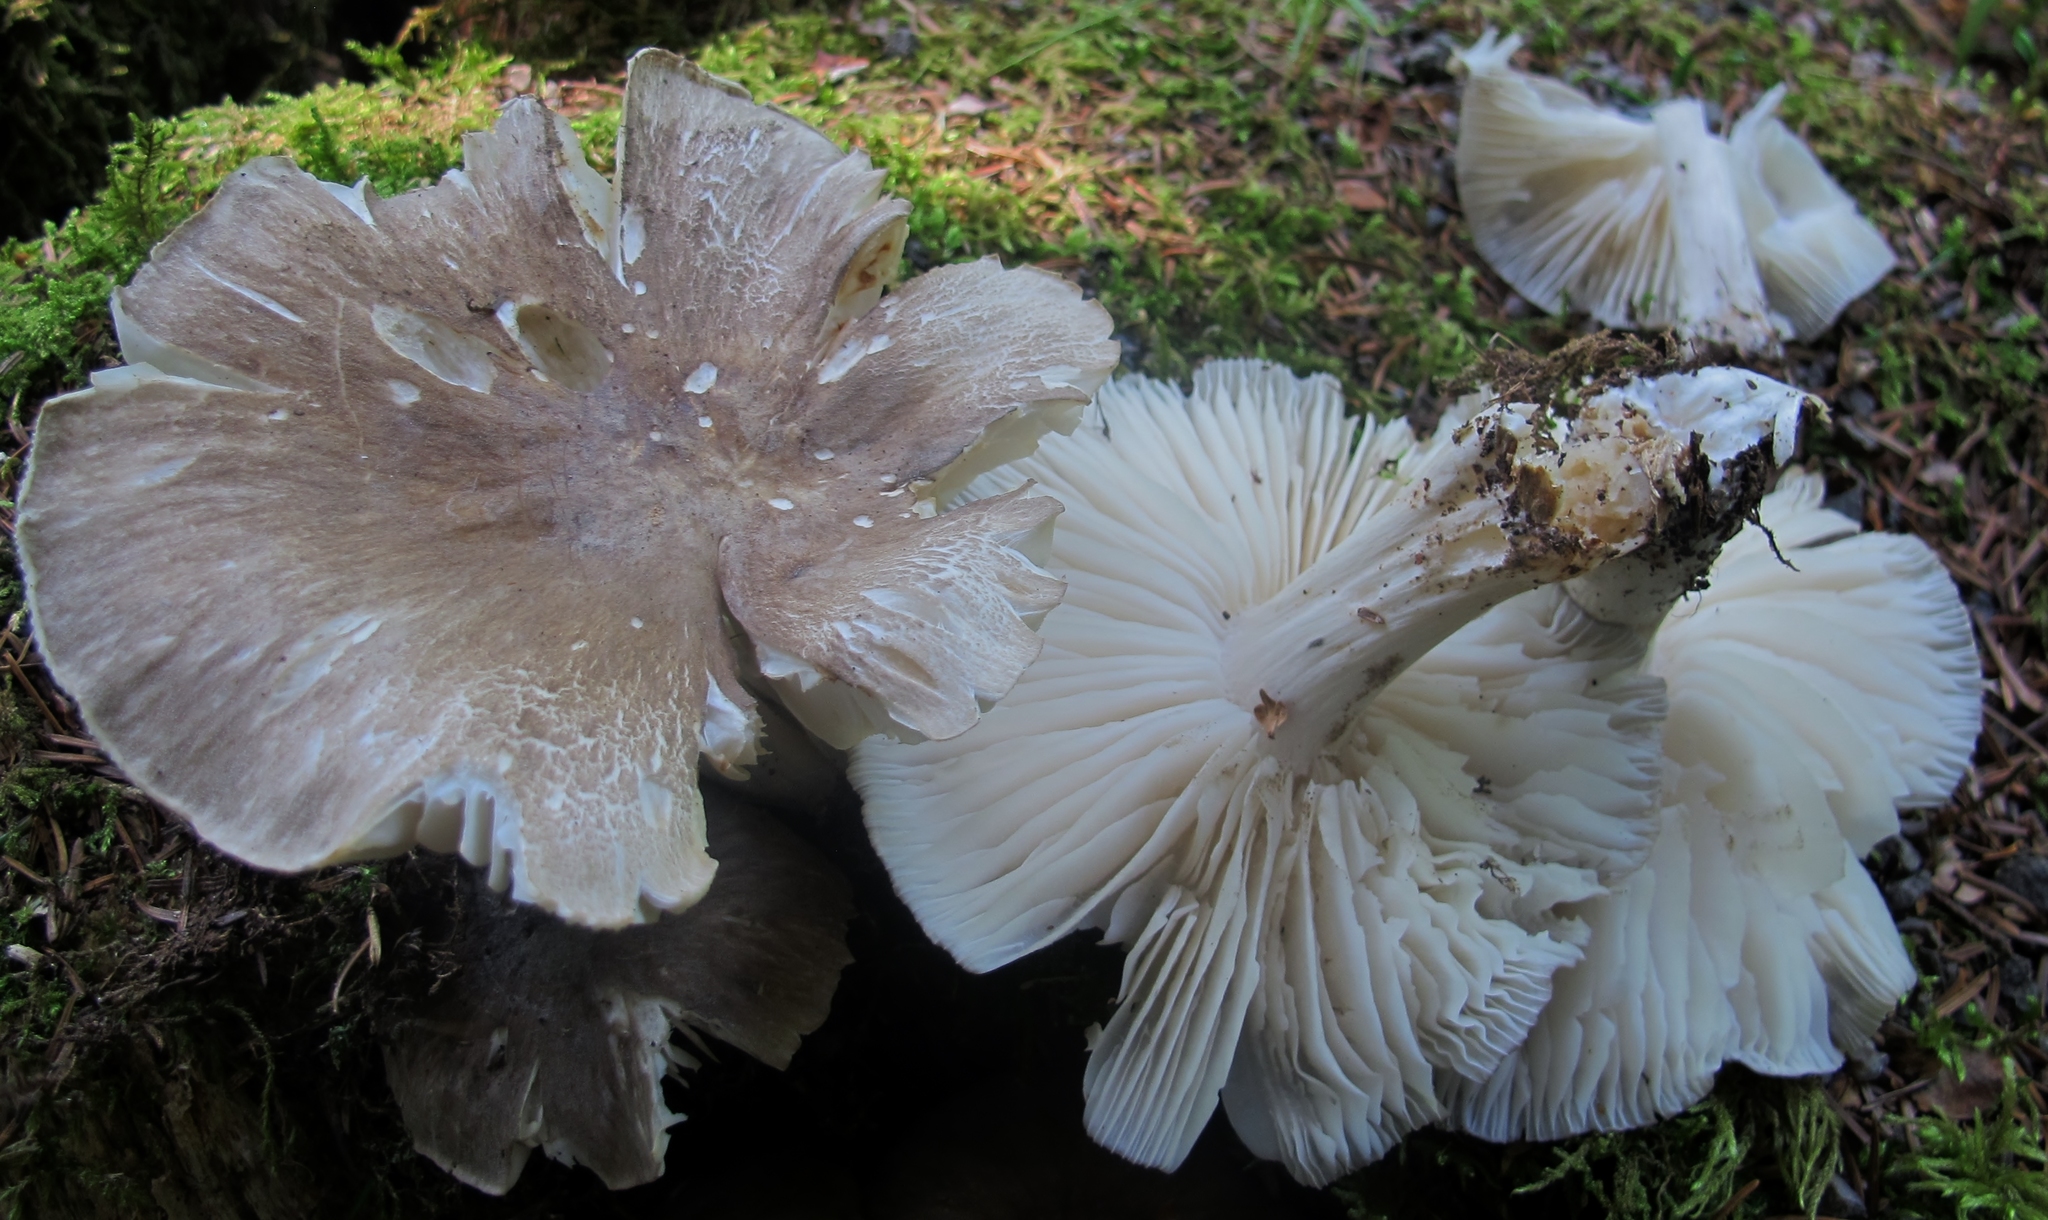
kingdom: Fungi
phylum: Basidiomycota
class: Agaricomycetes
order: Agaricales
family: Tricholomataceae
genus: Megacollybia
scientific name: Megacollybia rodmanii
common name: Eastern american platterful mushroom
